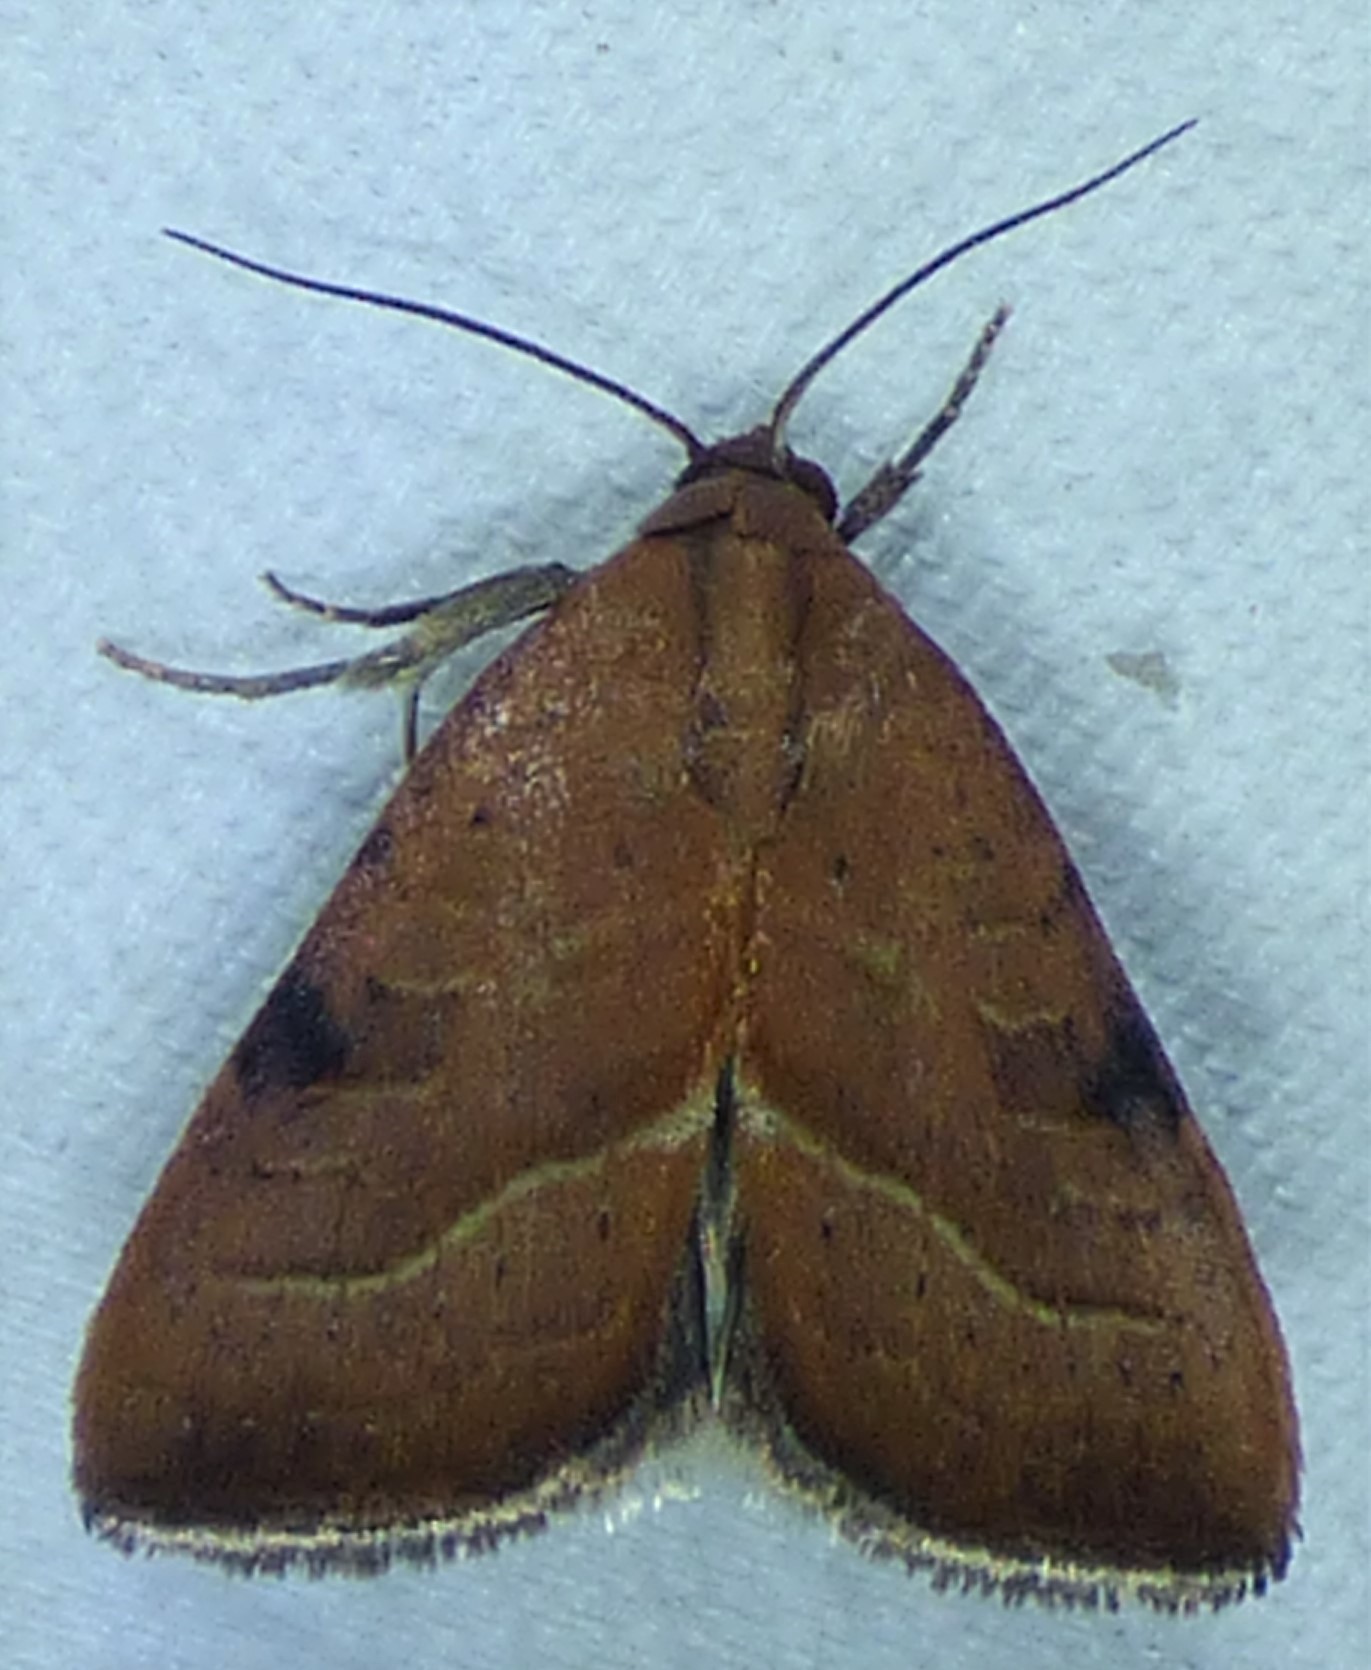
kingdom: Animalia
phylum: Arthropoda
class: Insecta
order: Lepidoptera
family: Noctuidae
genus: Galgula
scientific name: Galgula partita
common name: Wedgeling
